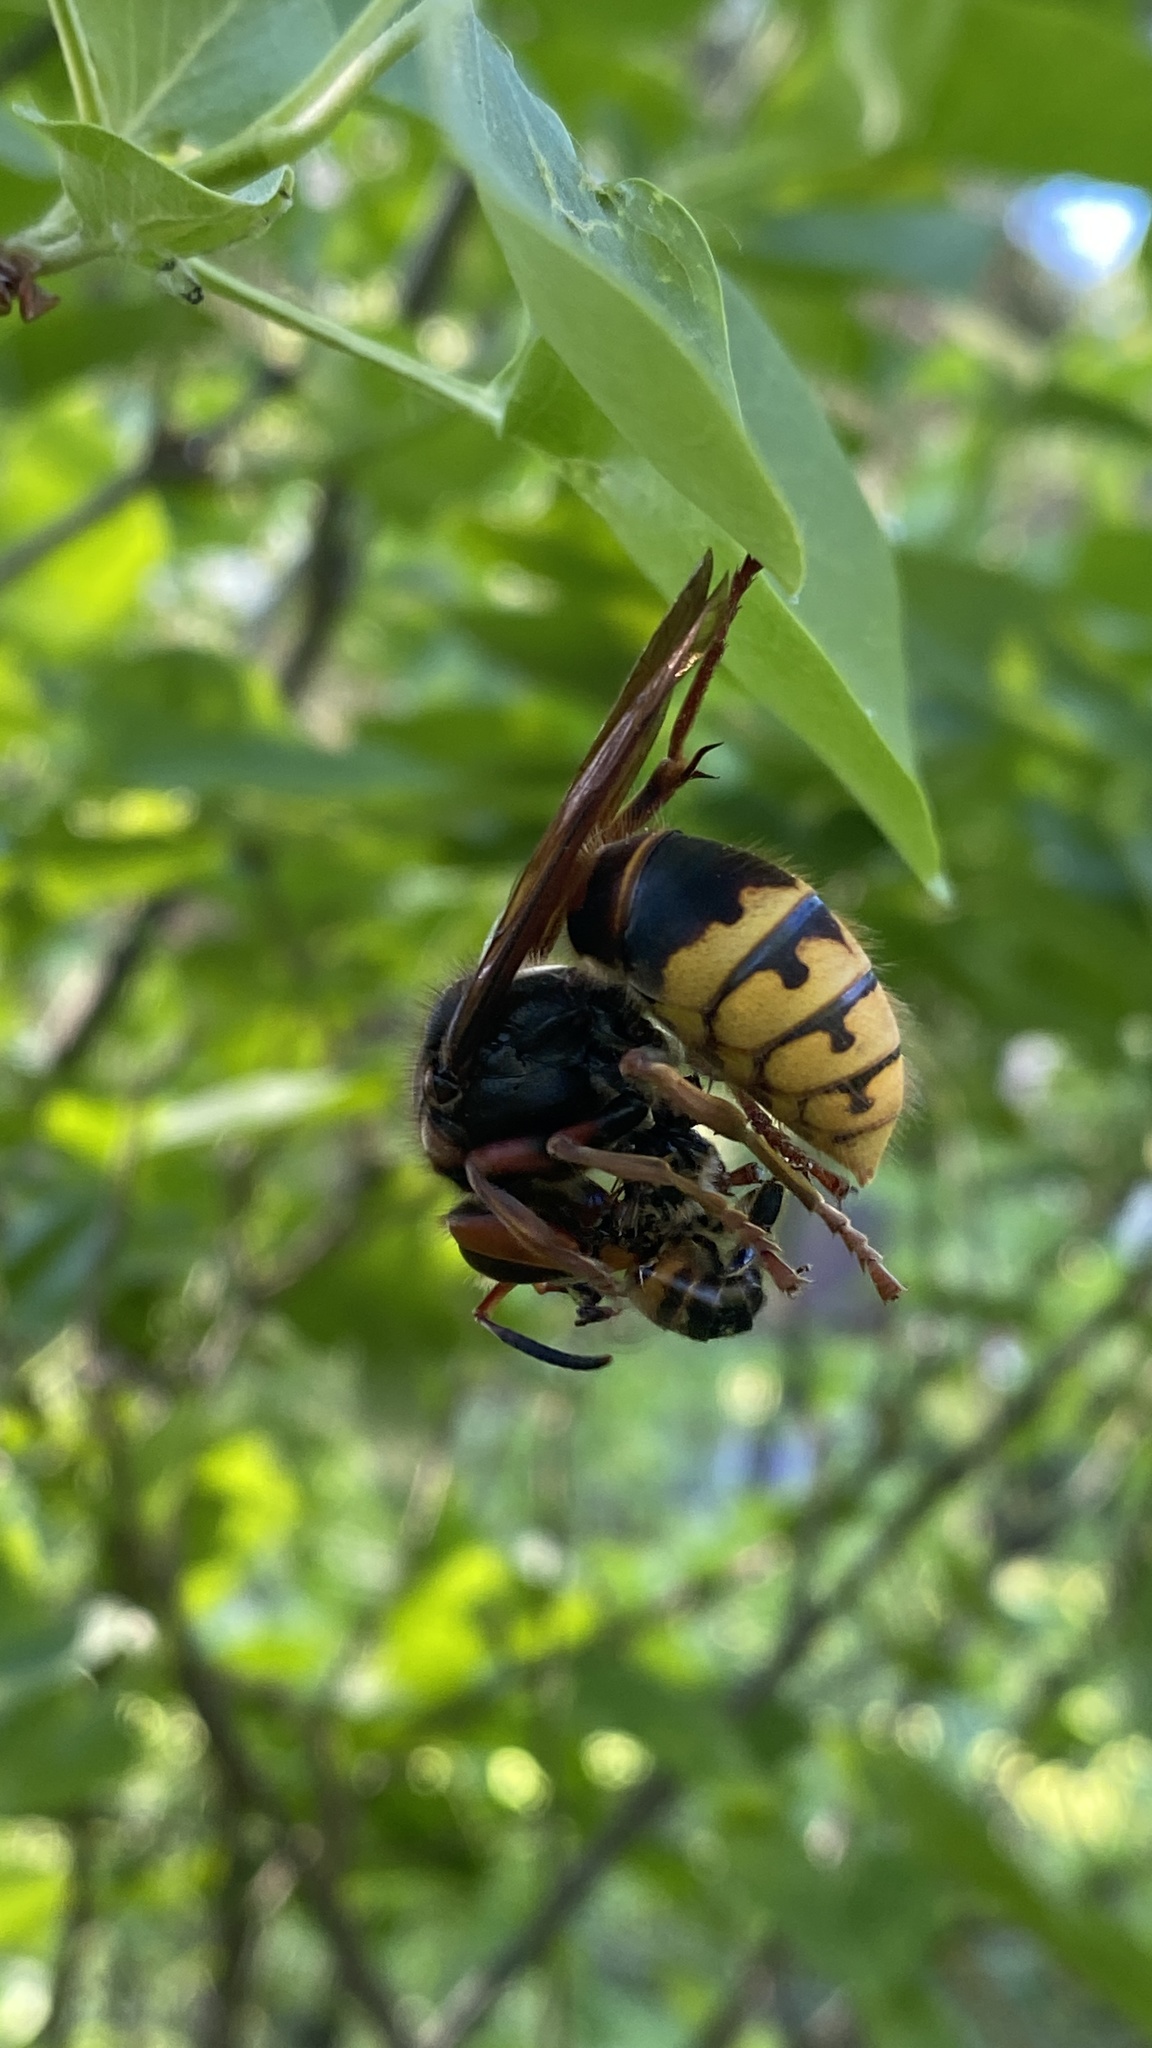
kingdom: Animalia
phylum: Arthropoda
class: Insecta
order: Hymenoptera
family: Vespidae
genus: Vespa
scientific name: Vespa crabro
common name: Hornet
